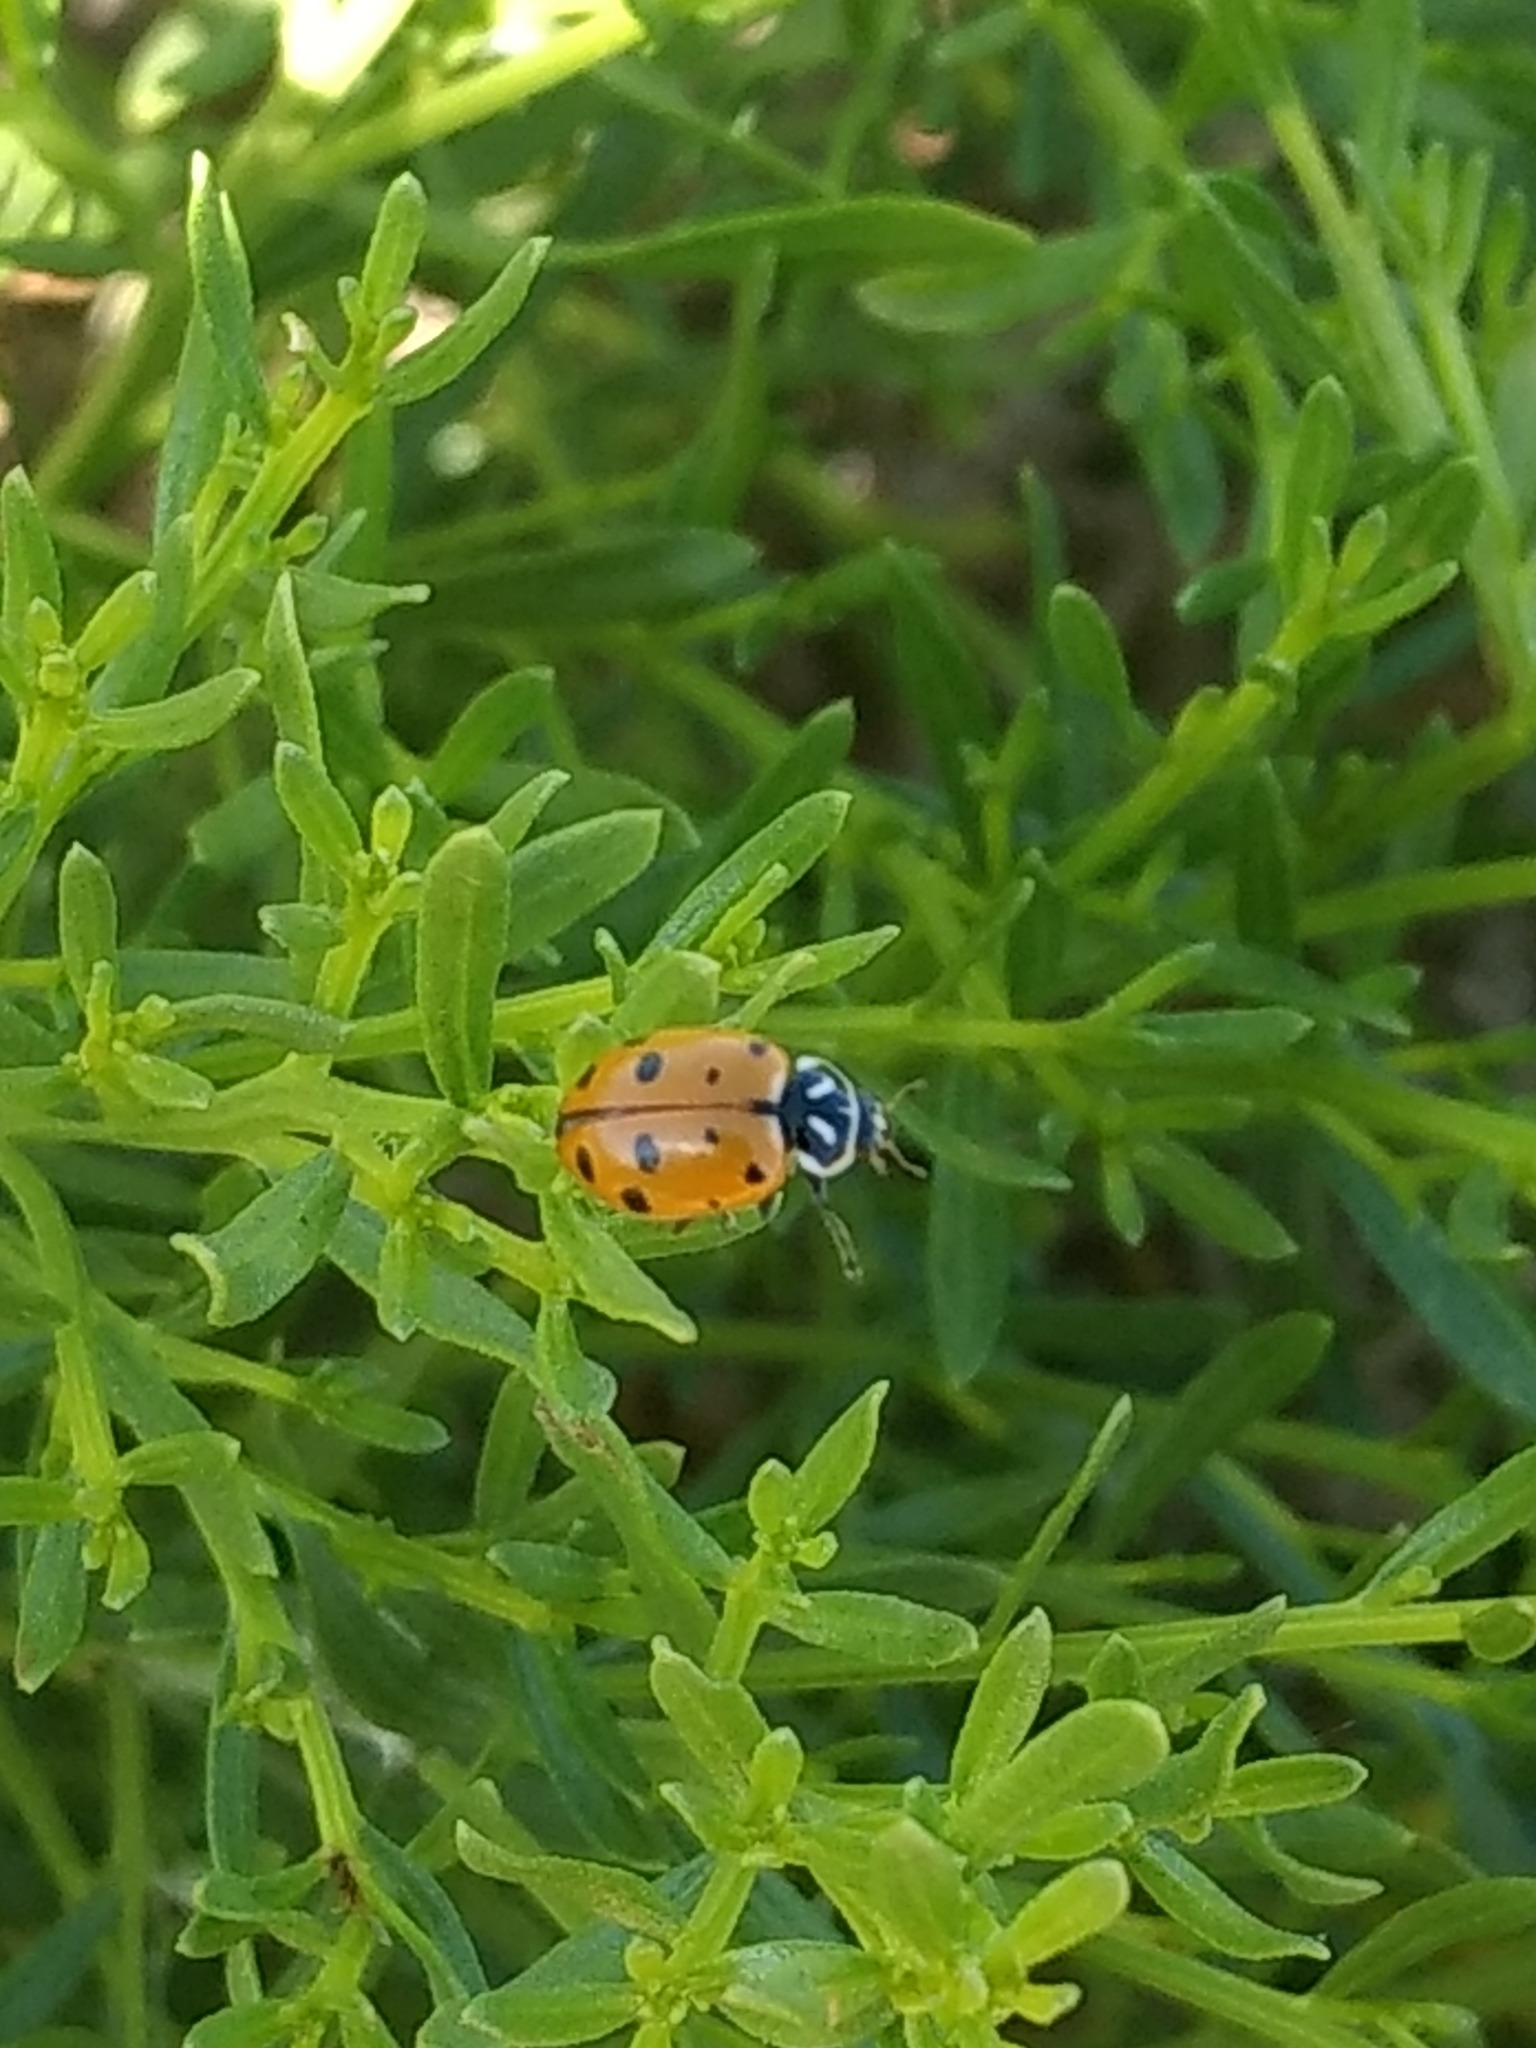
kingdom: Animalia
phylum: Arthropoda
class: Insecta
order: Coleoptera
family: Coccinellidae
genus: Hippodamia
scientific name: Hippodamia convergens
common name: Convergent lady beetle
